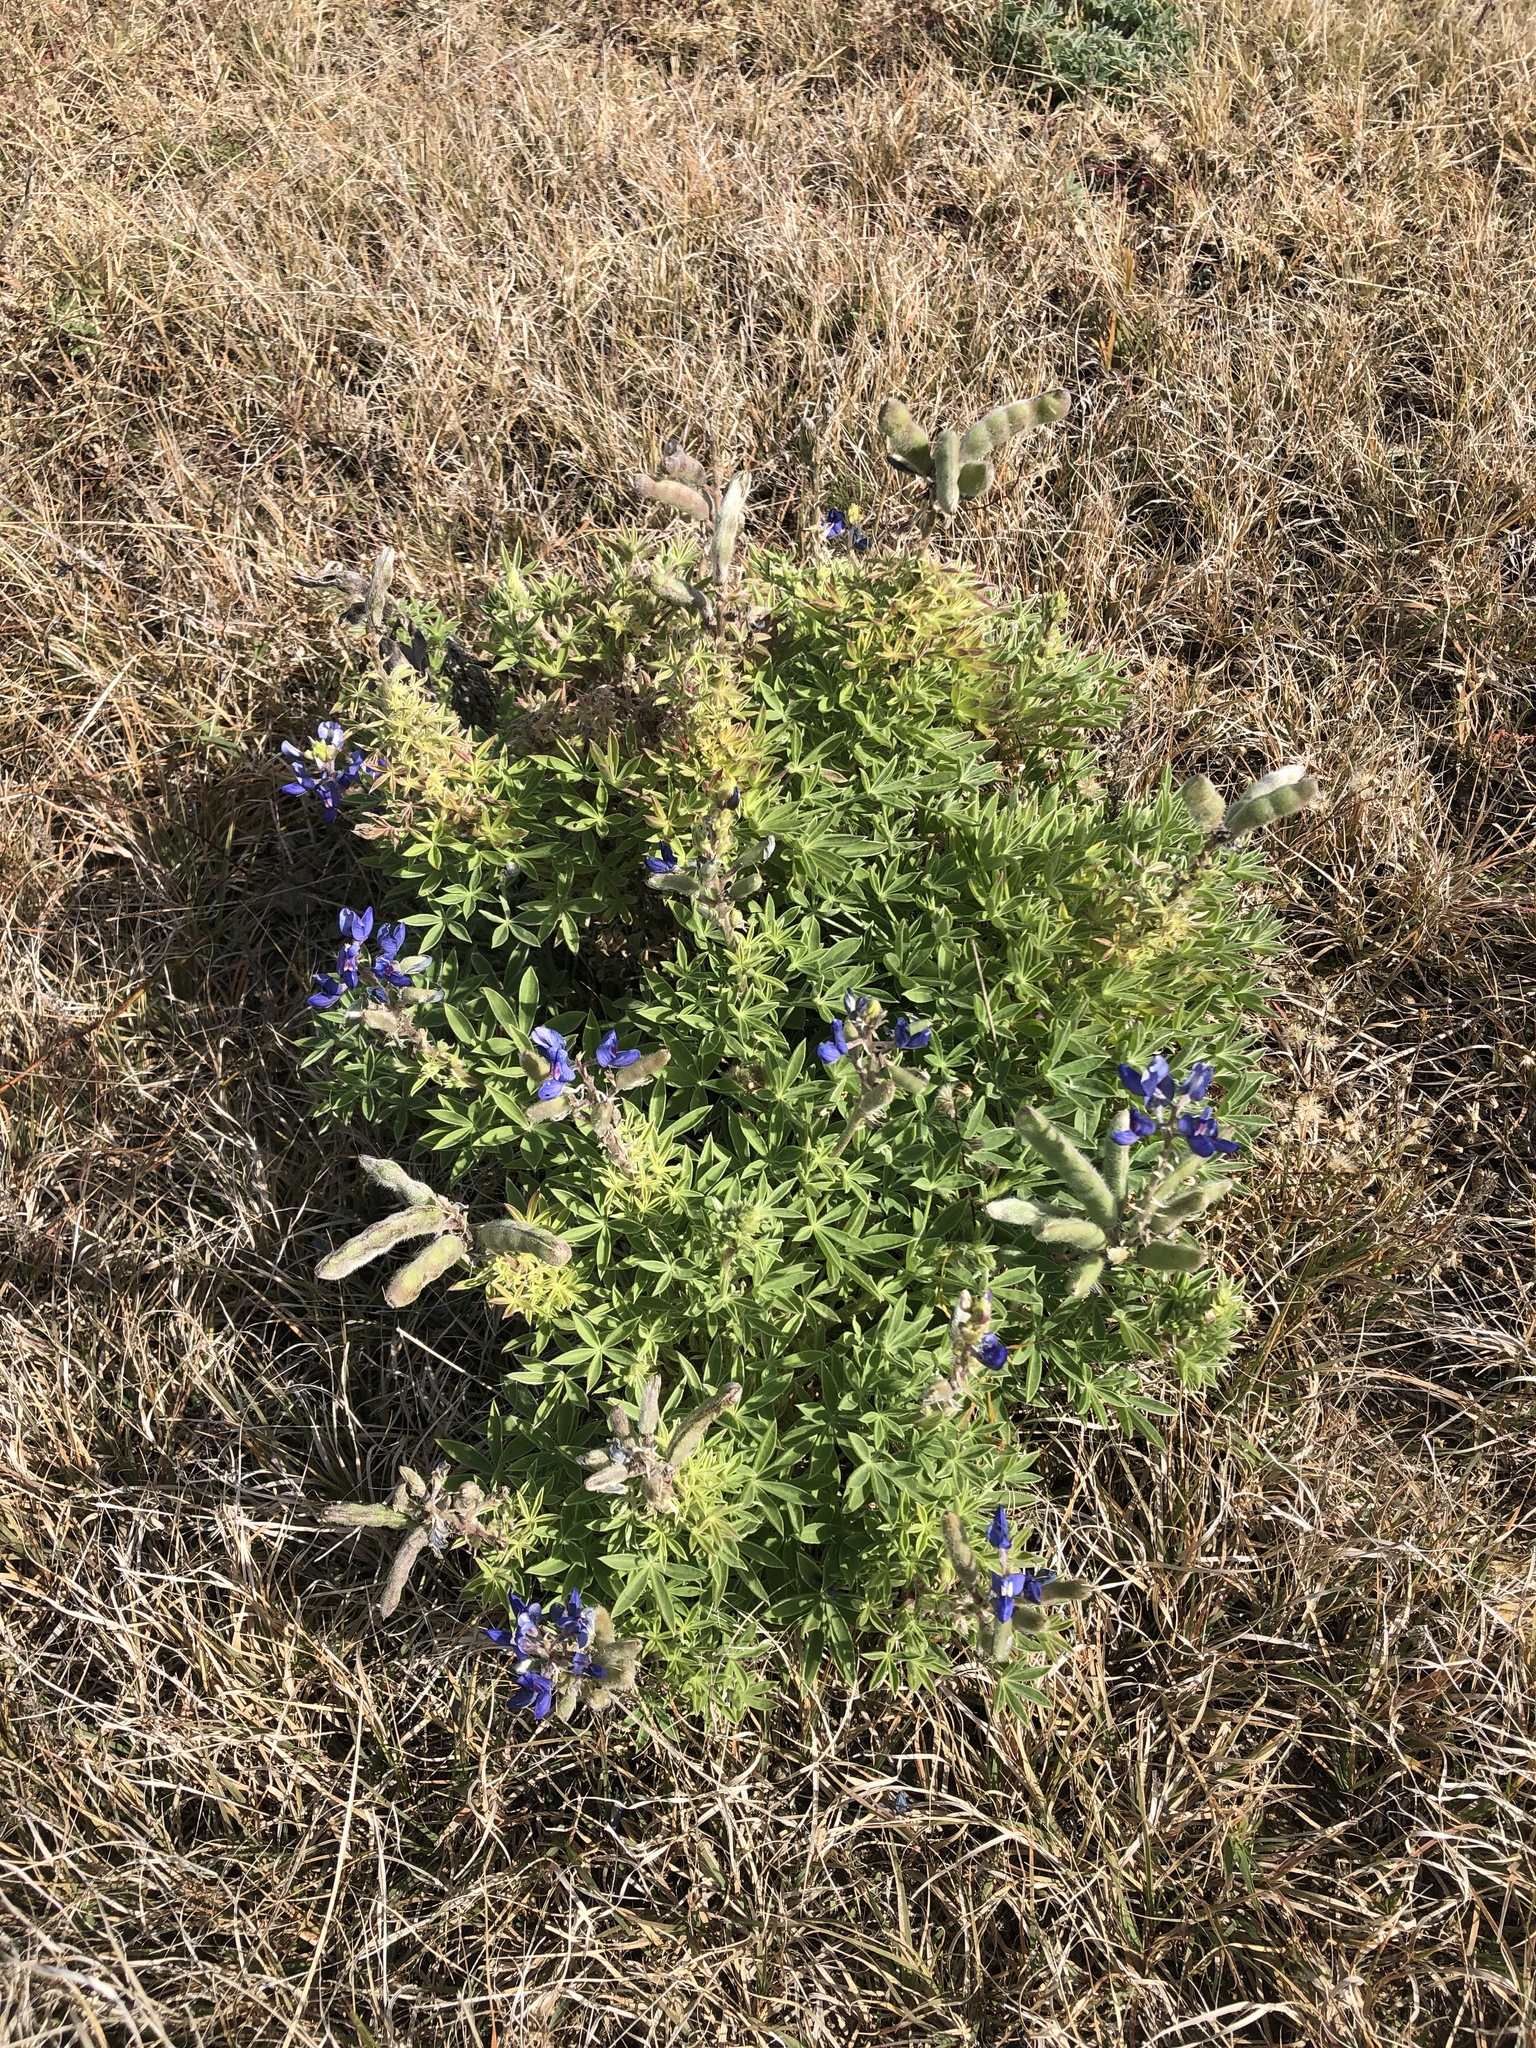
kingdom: Plantae
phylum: Tracheophyta
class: Magnoliopsida
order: Fabales
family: Fabaceae
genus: Lupinus
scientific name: Lupinus texensis
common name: Texas bluebonnet
